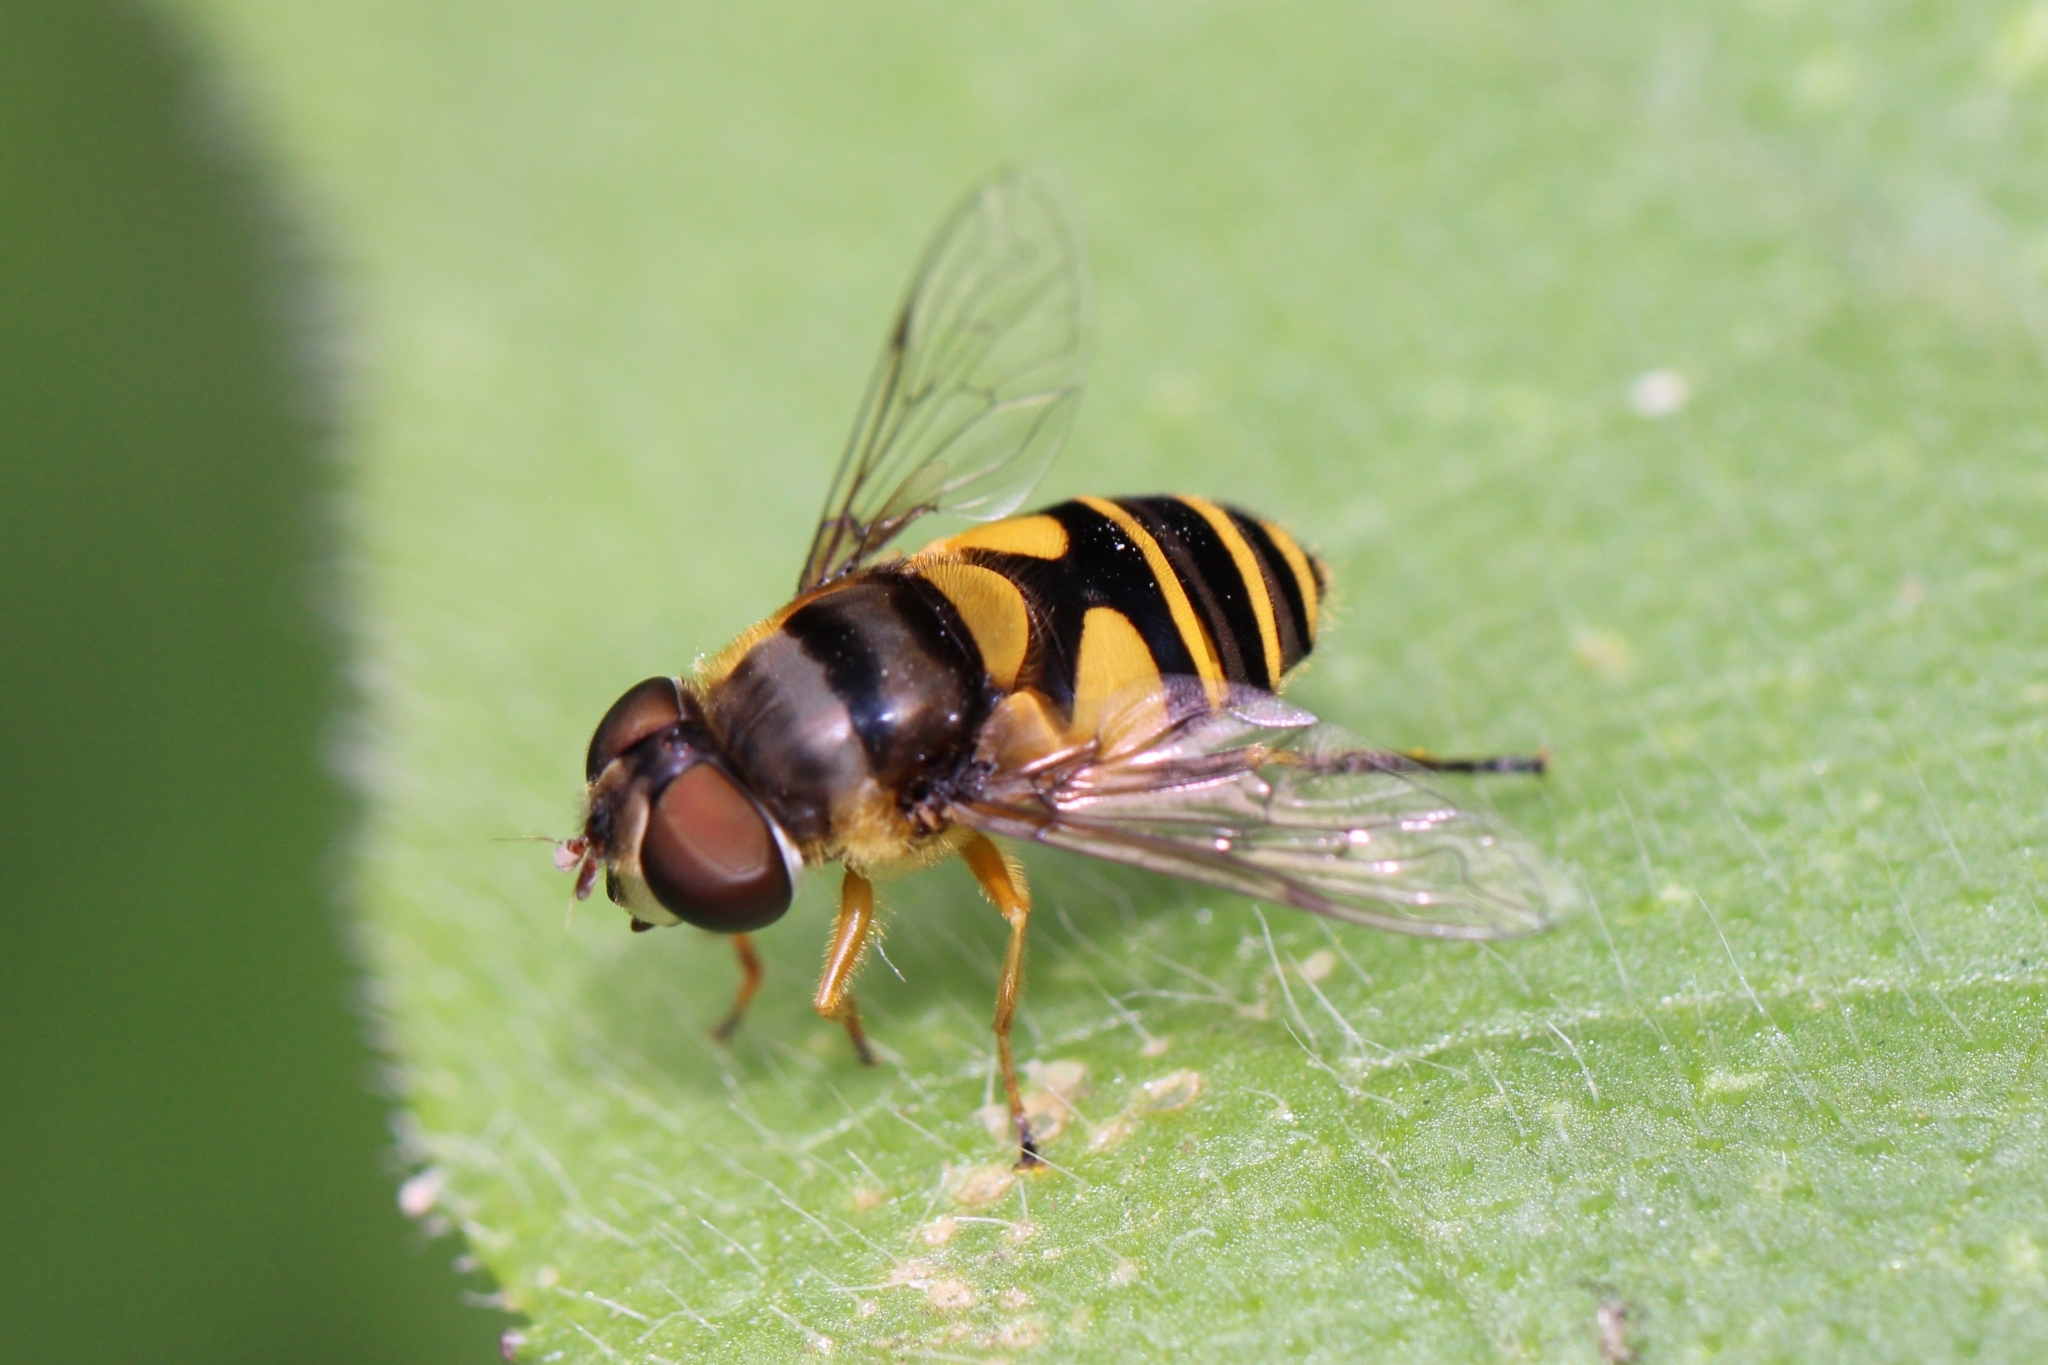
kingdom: Animalia
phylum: Arthropoda
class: Insecta
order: Diptera
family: Syrphidae
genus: Eristalis
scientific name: Eristalis transversa
